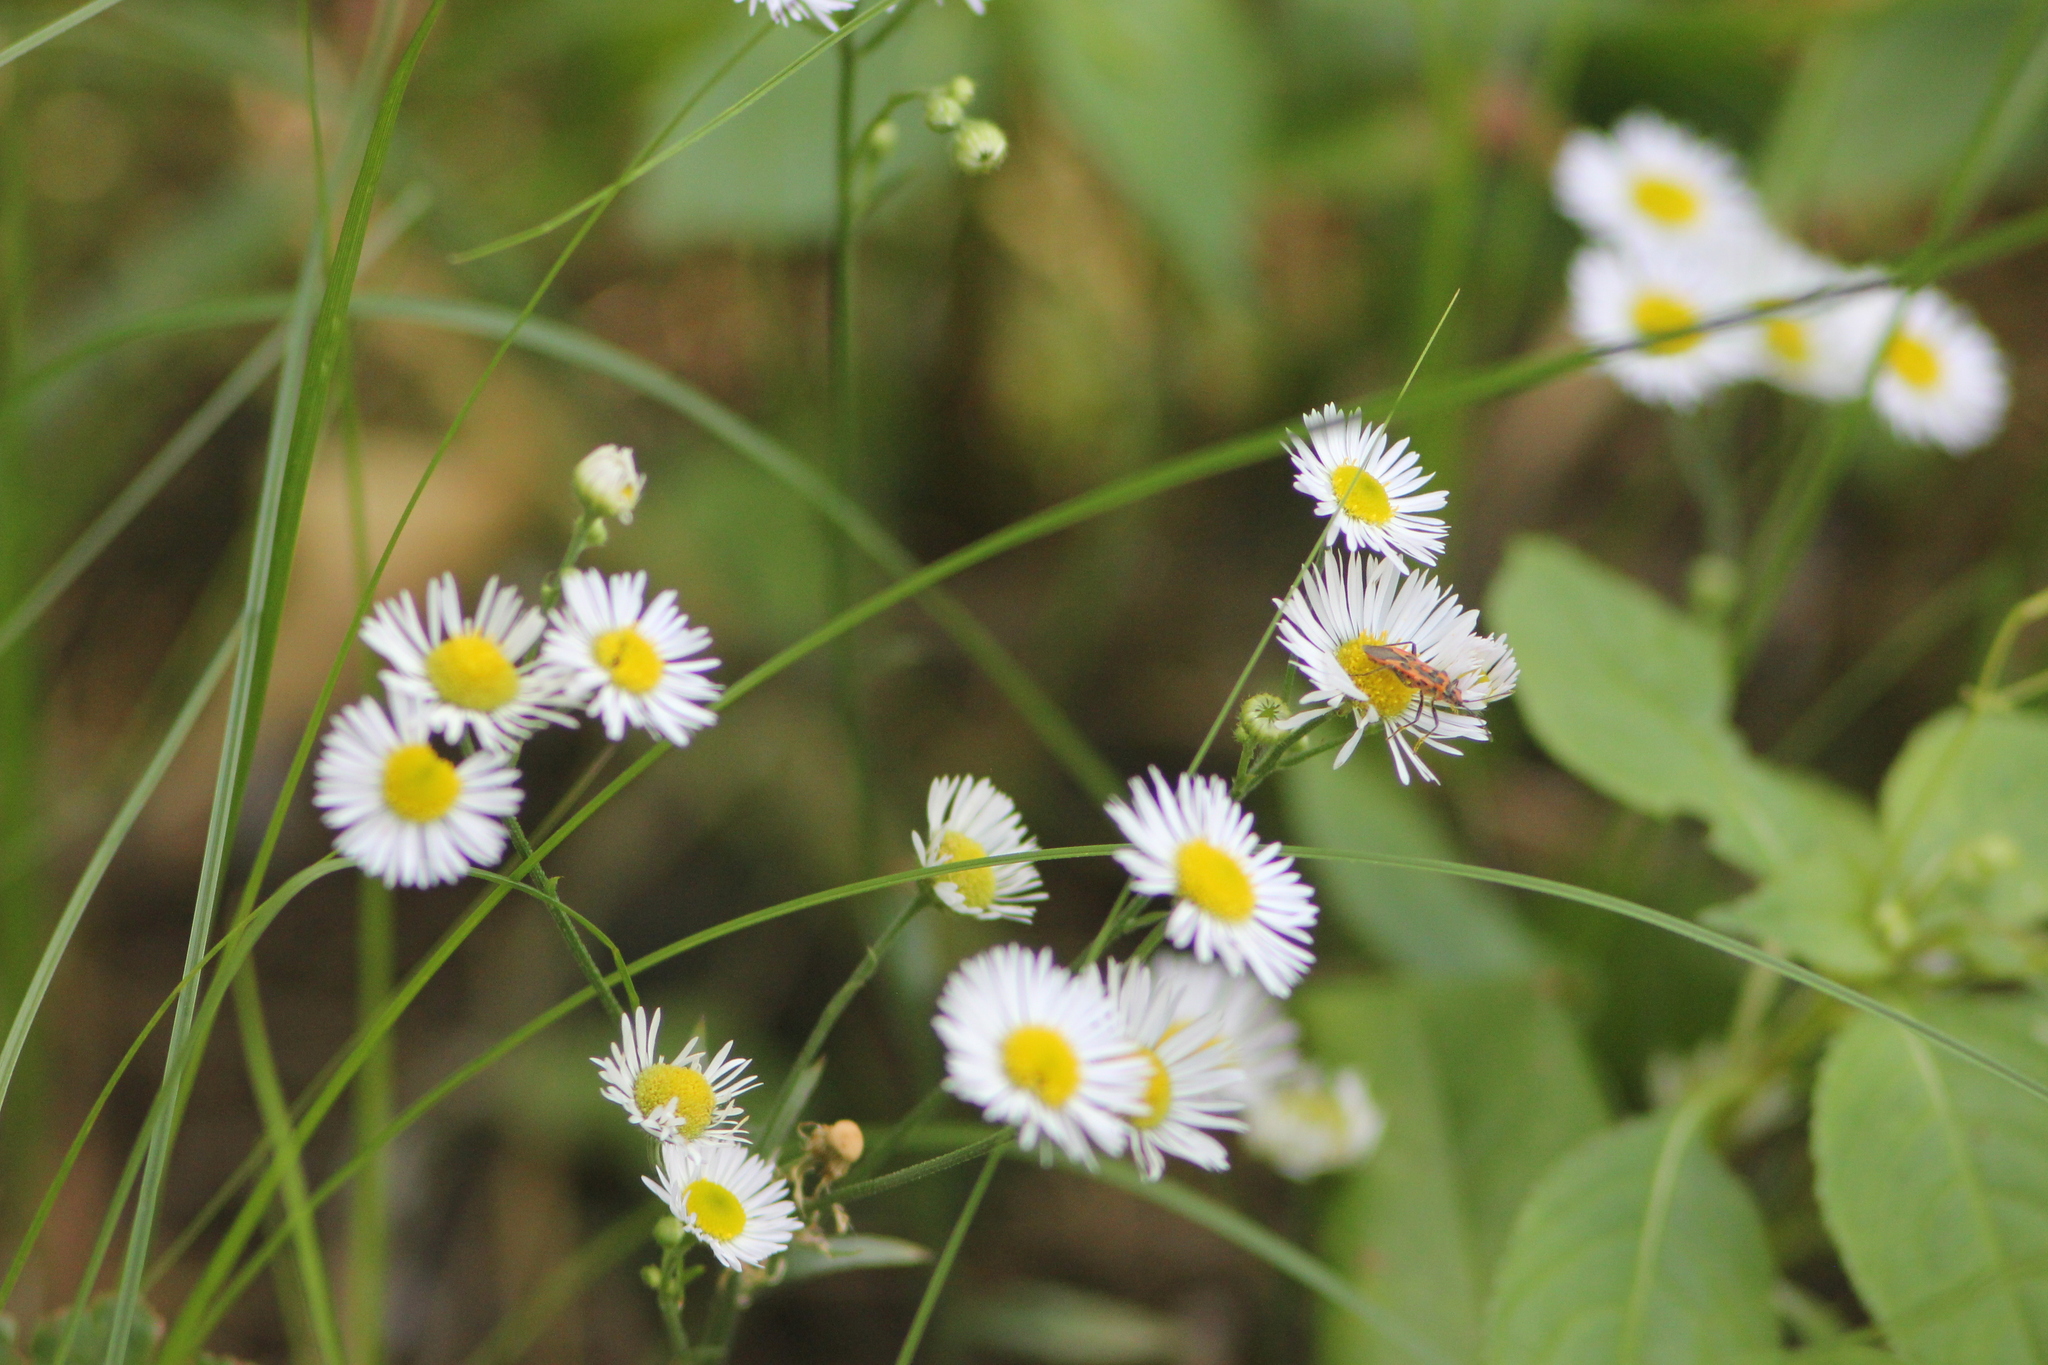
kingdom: Plantae
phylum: Tracheophyta
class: Magnoliopsida
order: Asterales
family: Asteraceae
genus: Erigeron
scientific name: Erigeron strigosus
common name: Common eastern fleabane
